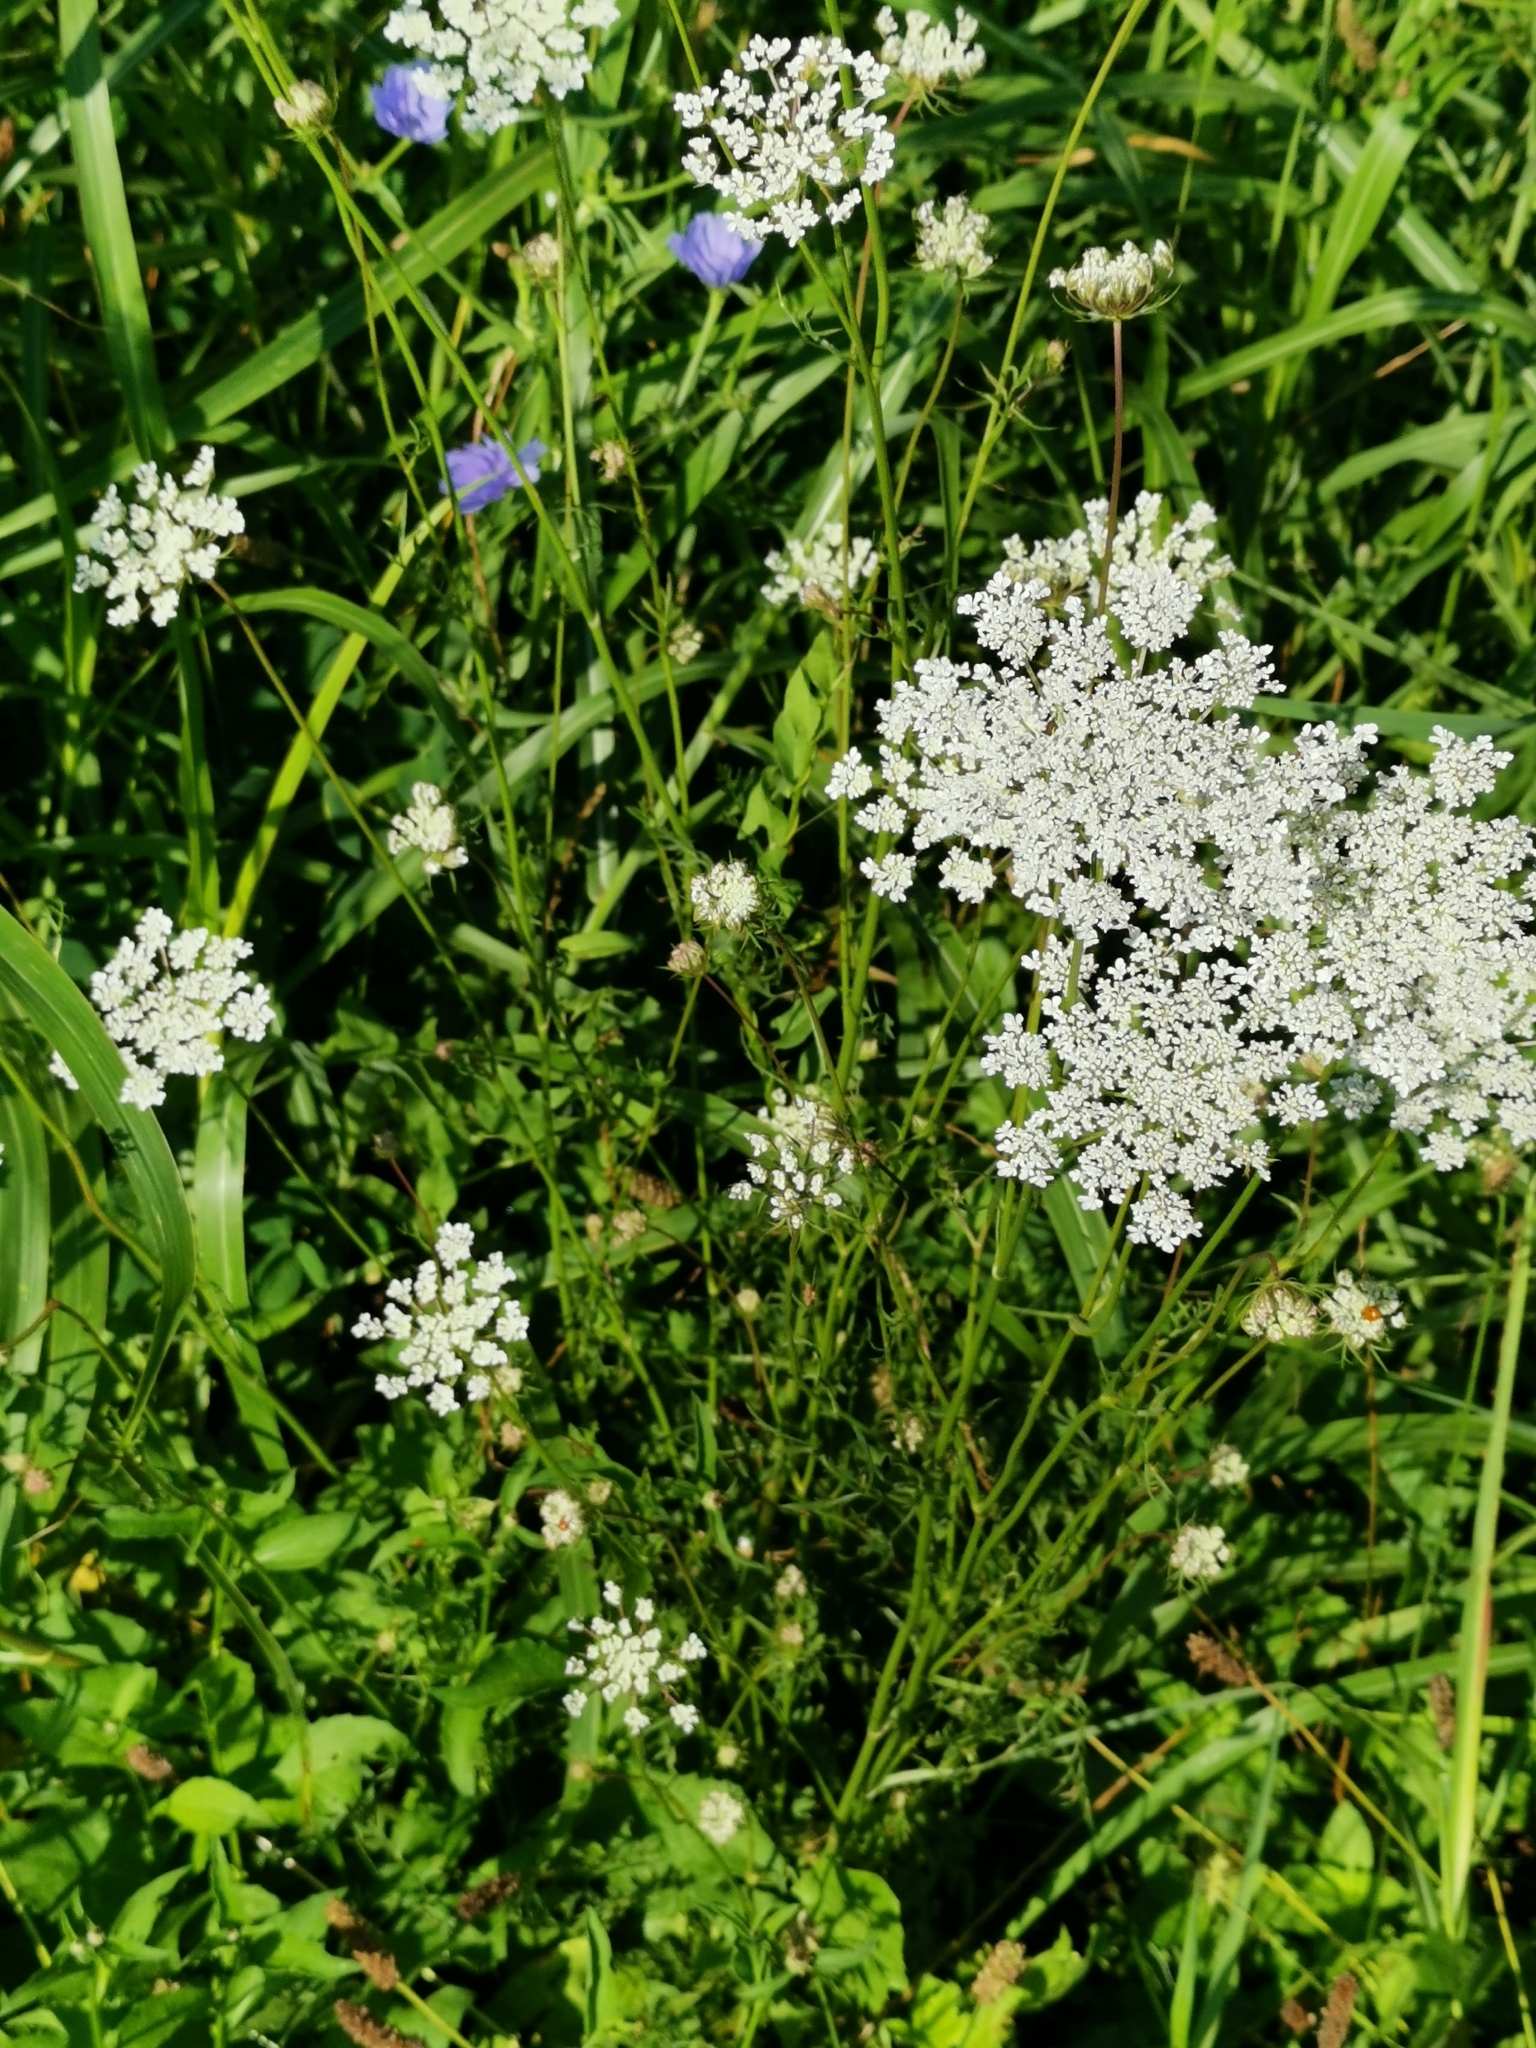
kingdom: Plantae
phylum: Tracheophyta
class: Magnoliopsida
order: Apiales
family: Apiaceae
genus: Daucus
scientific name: Daucus carota
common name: Wild carrot
